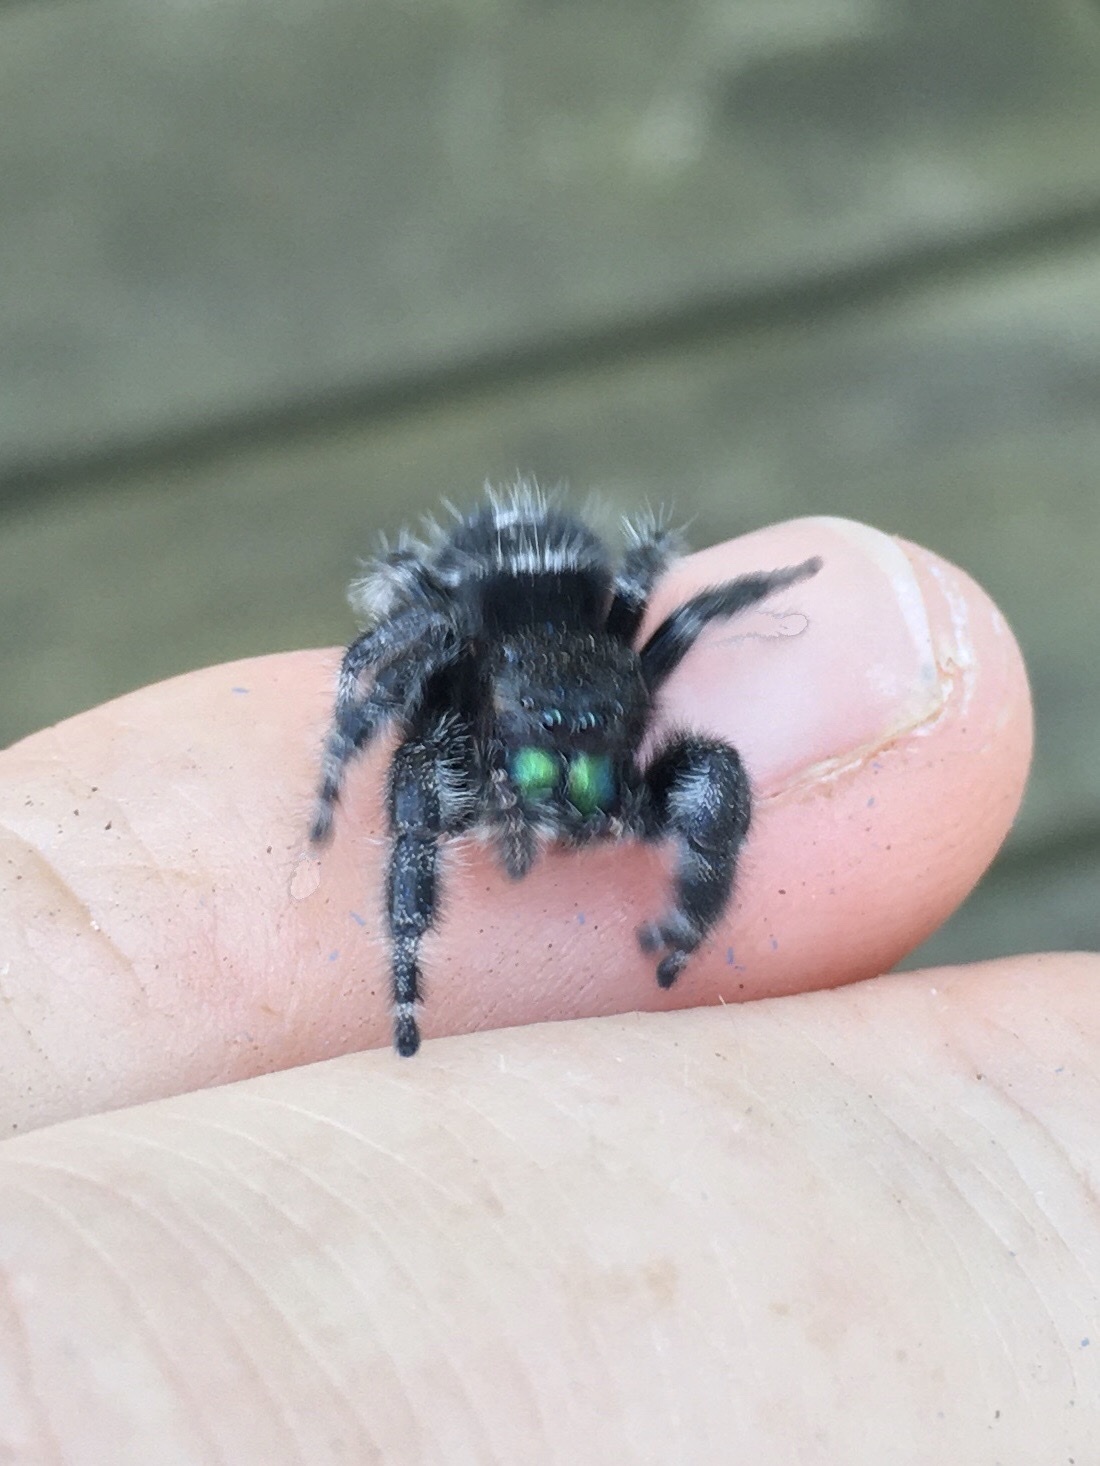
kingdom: Animalia
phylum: Arthropoda
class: Arachnida
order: Araneae
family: Salticidae
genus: Phidippus
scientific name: Phidippus audax
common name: Bold jumper
